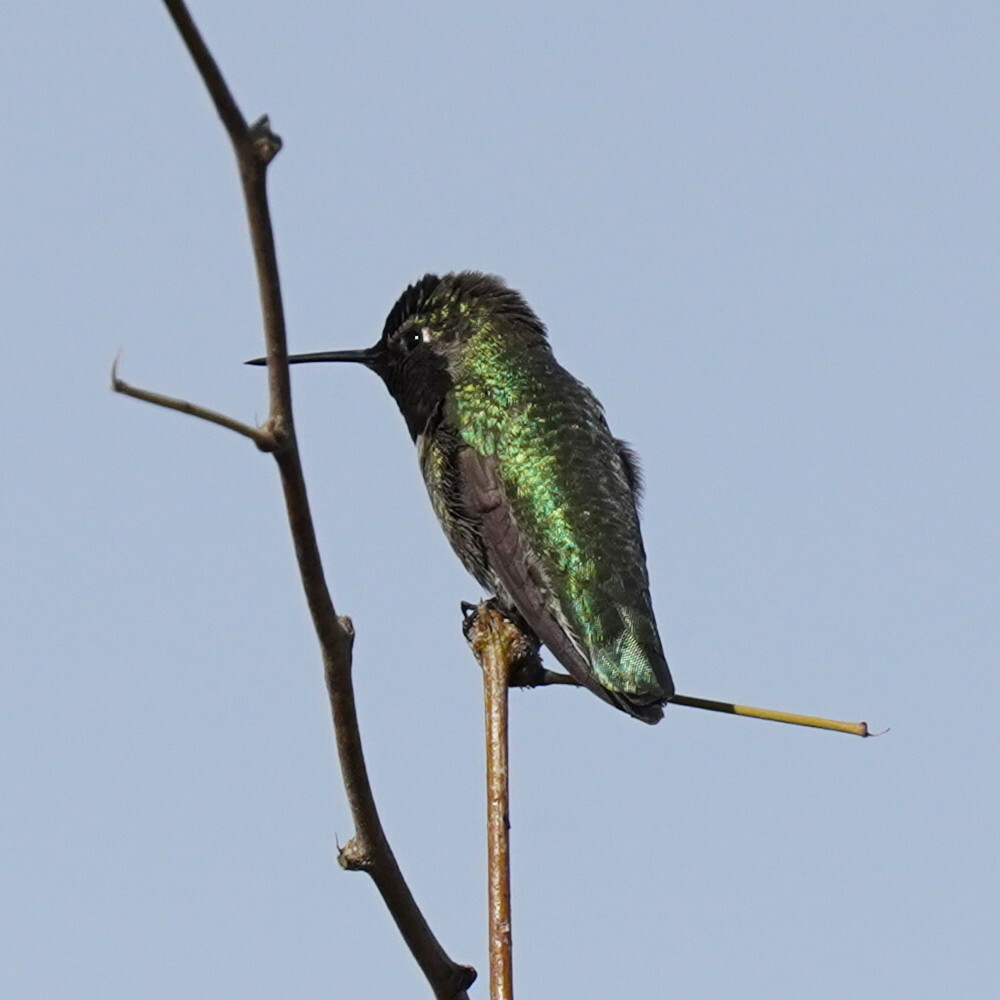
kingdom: Animalia
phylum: Chordata
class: Aves
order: Apodiformes
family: Trochilidae
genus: Calypte
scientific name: Calypte anna
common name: Anna's hummingbird
